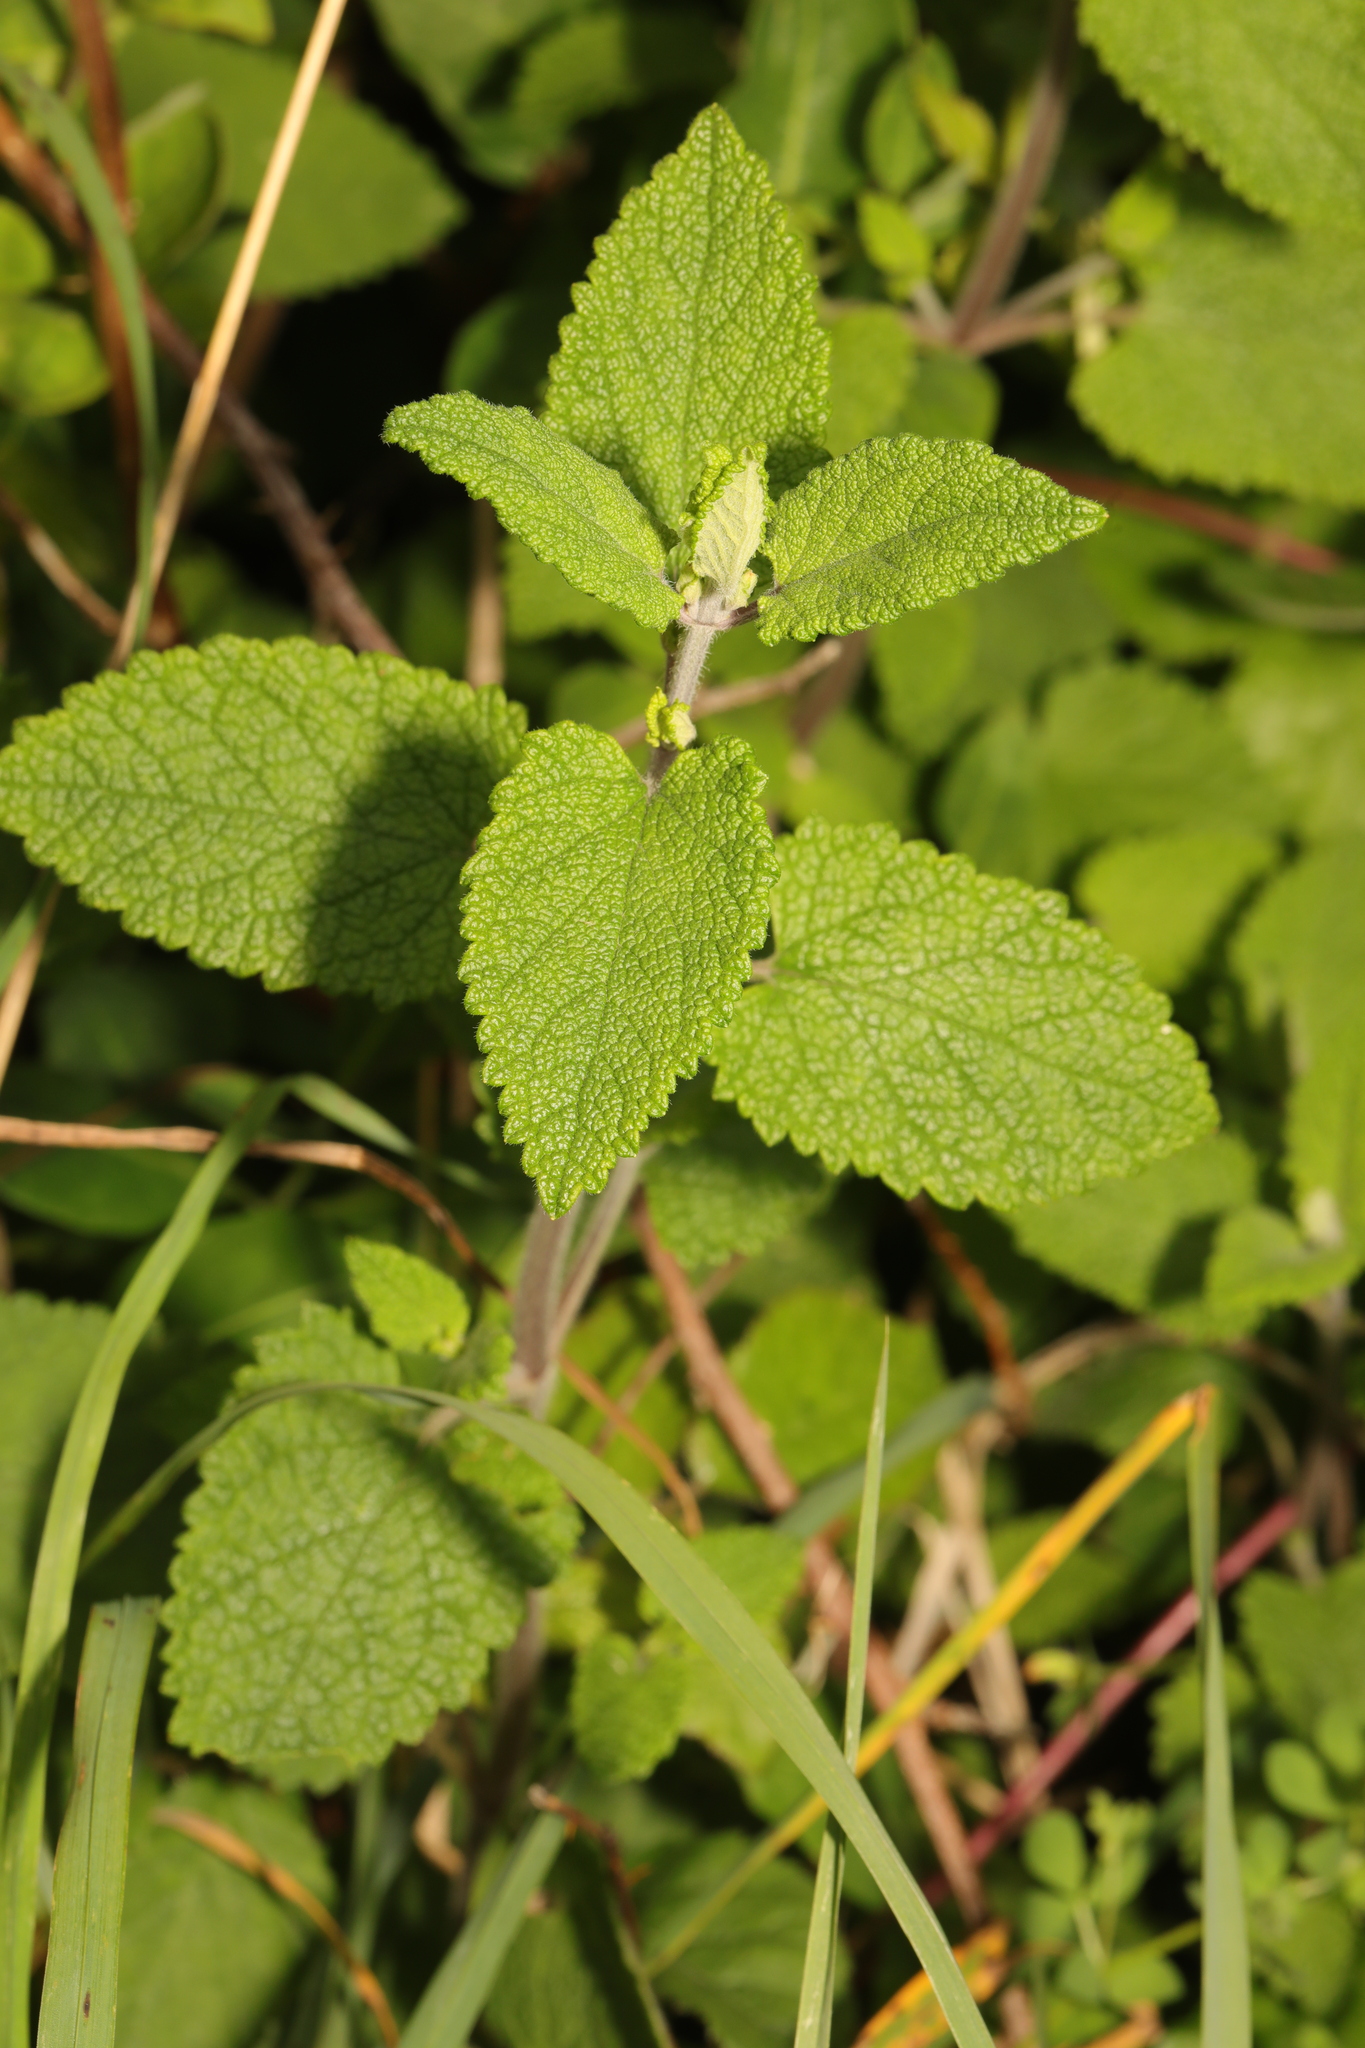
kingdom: Plantae
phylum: Tracheophyta
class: Magnoliopsida
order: Lamiales
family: Lamiaceae
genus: Teucrium
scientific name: Teucrium scorodonia
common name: Woodland germander
